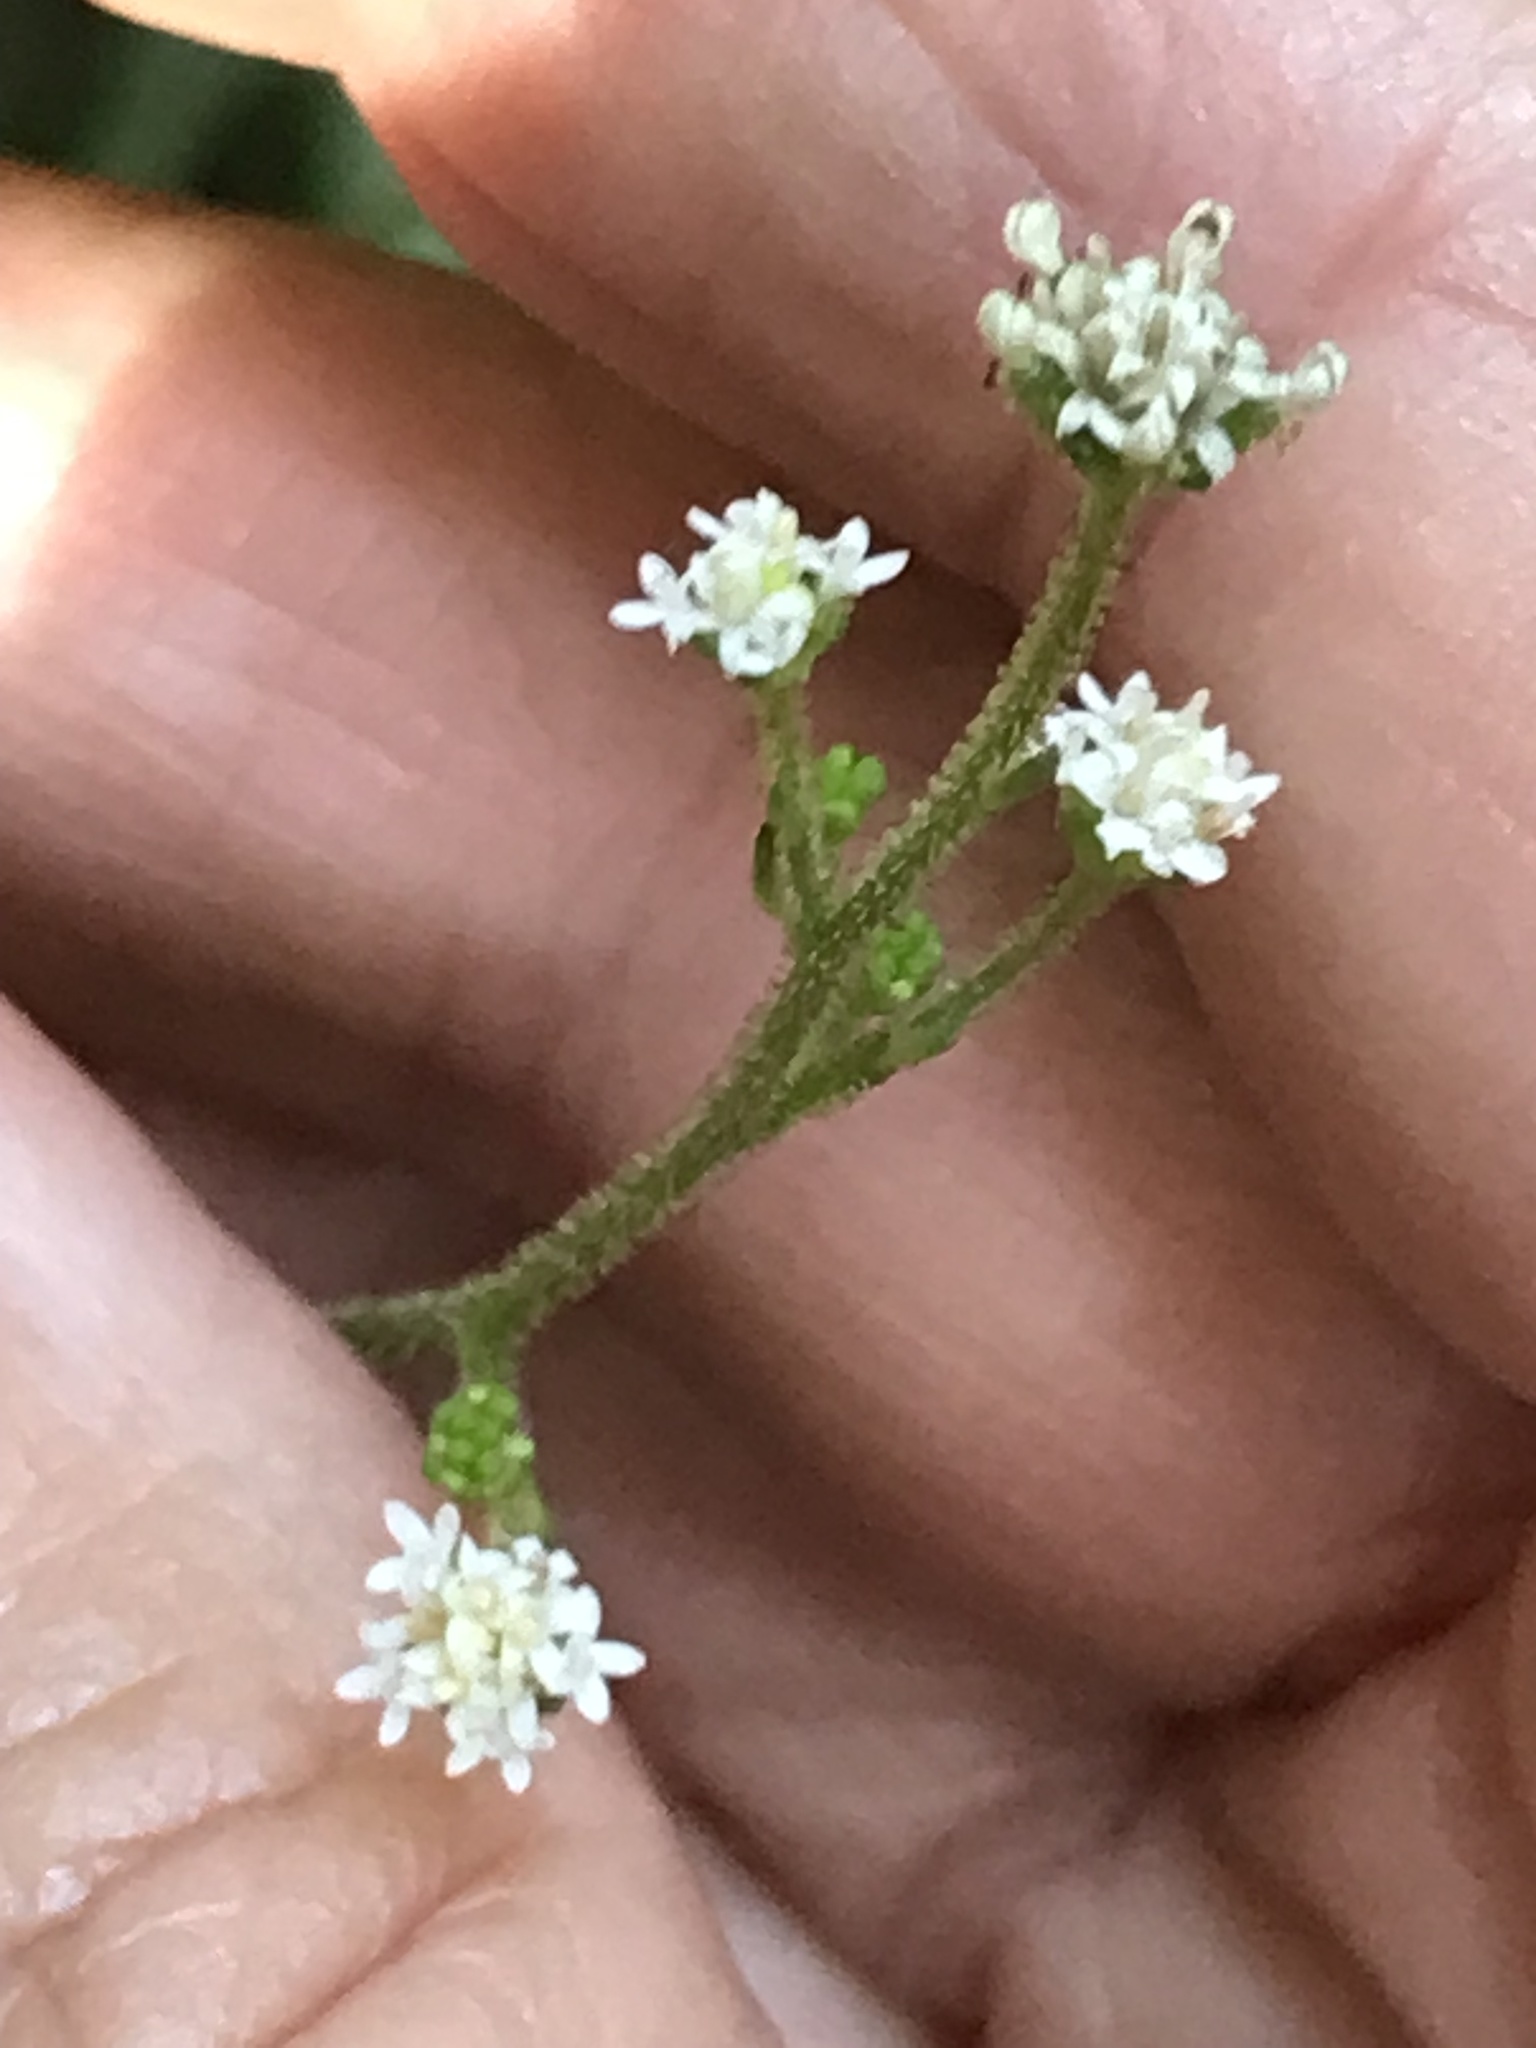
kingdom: Plantae
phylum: Tracheophyta
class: Magnoliopsida
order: Asterales
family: Asteraceae
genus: Adenocaulon
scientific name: Adenocaulon bicolor
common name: Trailplant
